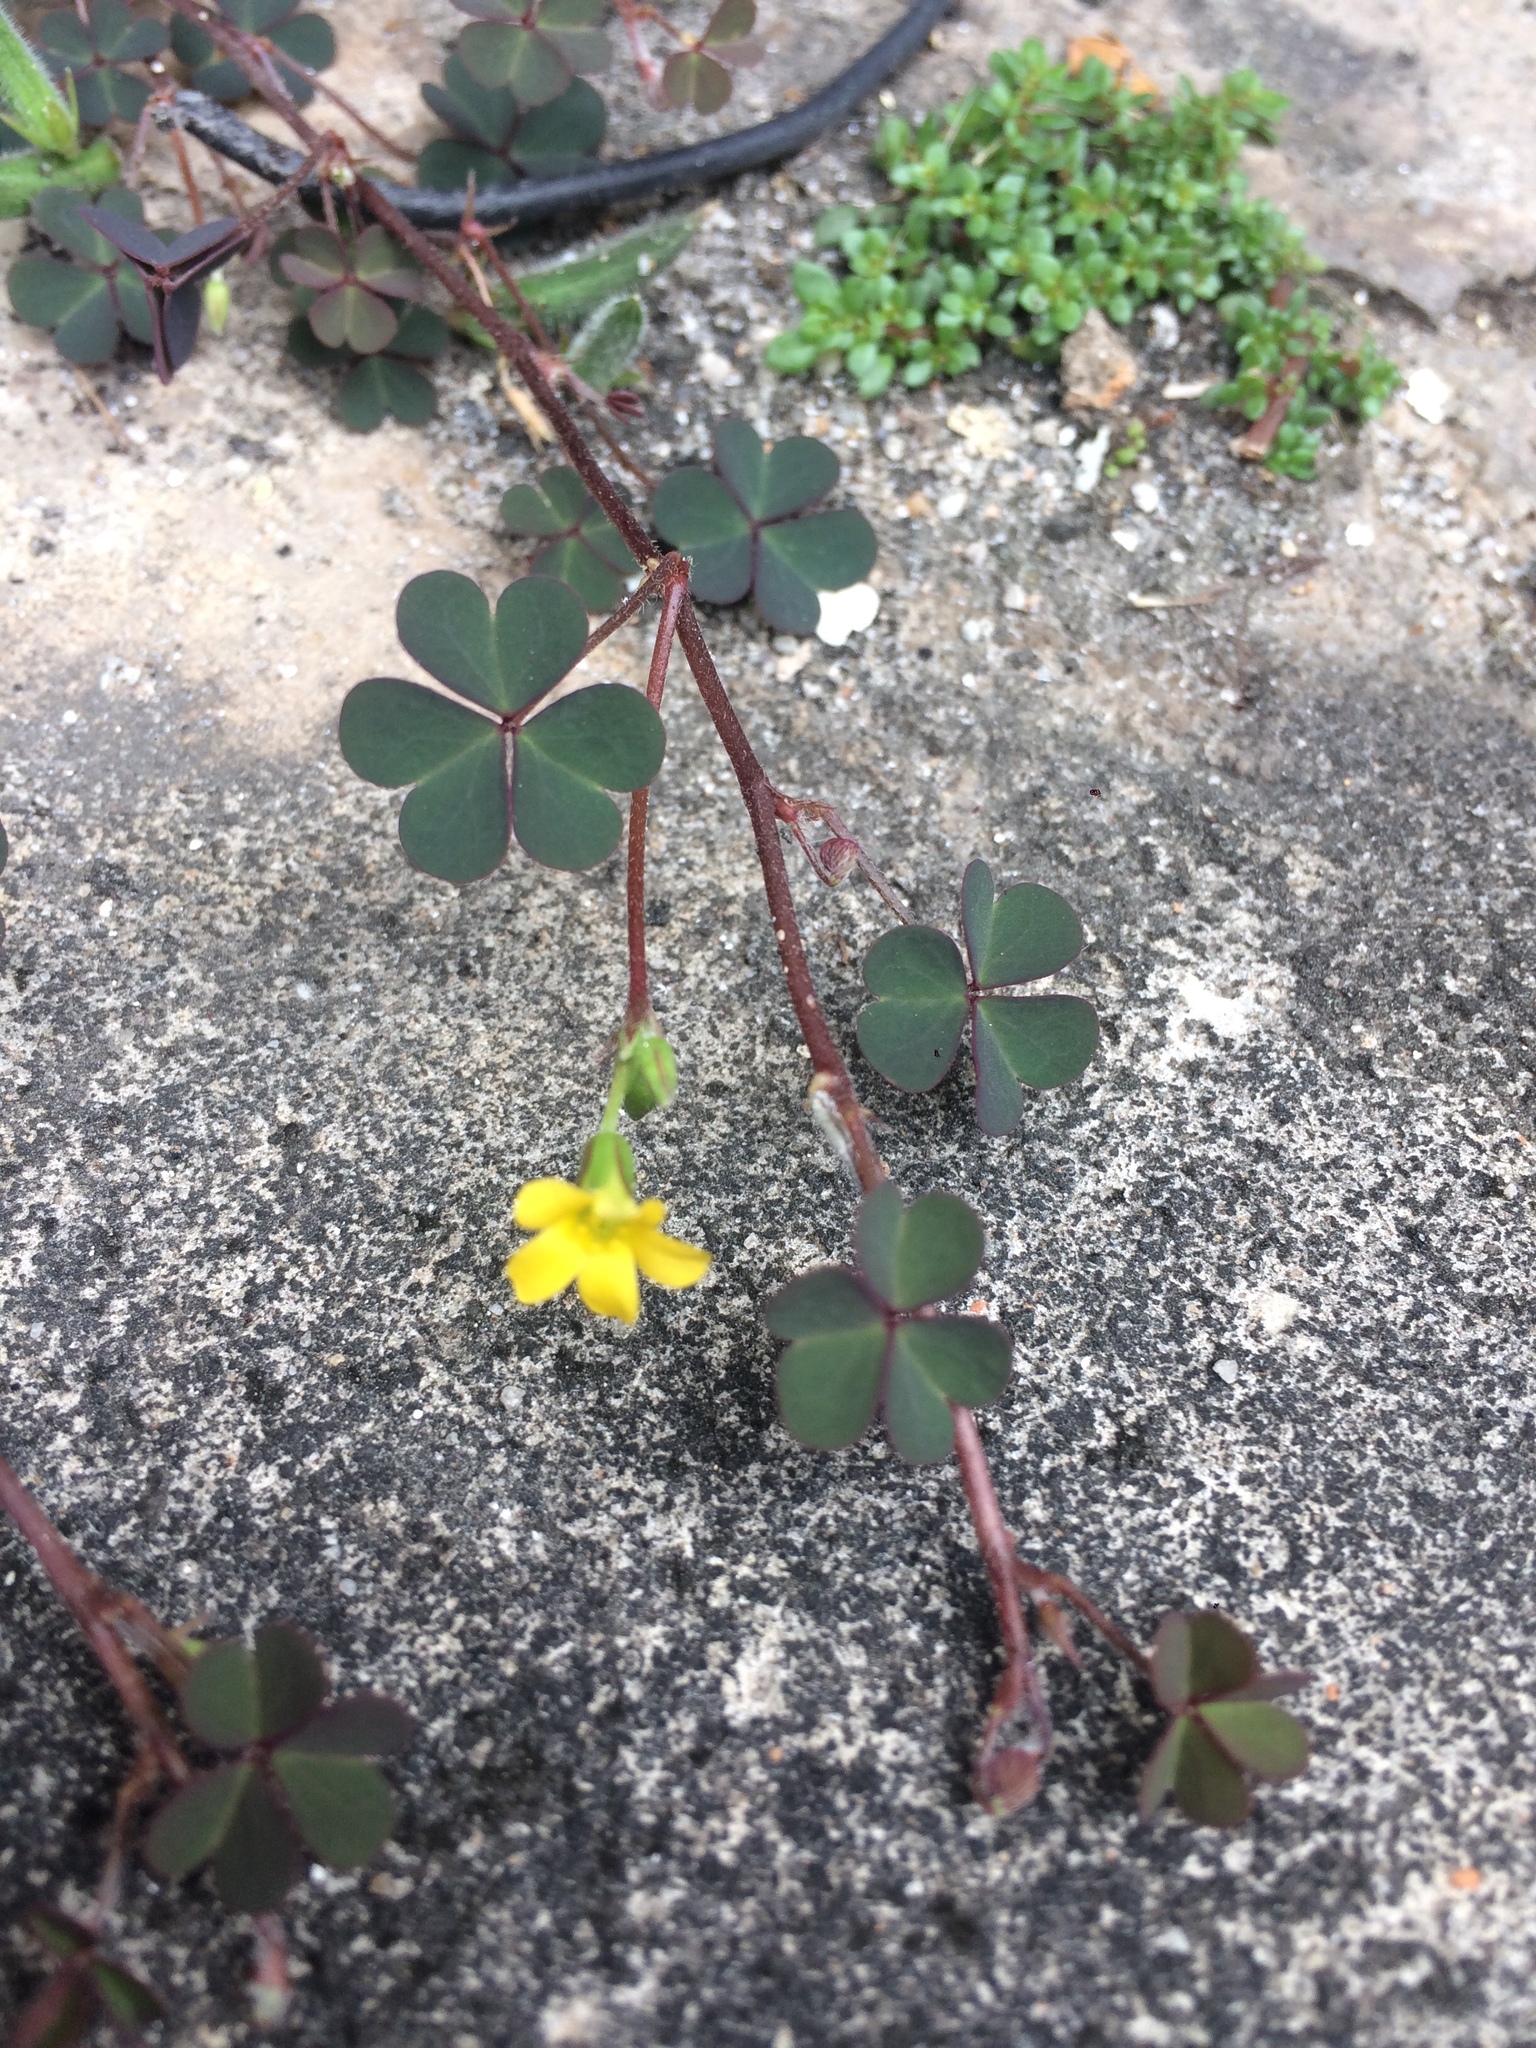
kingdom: Plantae
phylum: Tracheophyta
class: Magnoliopsida
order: Oxalidales
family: Oxalidaceae
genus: Oxalis
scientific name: Oxalis corniculata
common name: Procumbent yellow-sorrel
